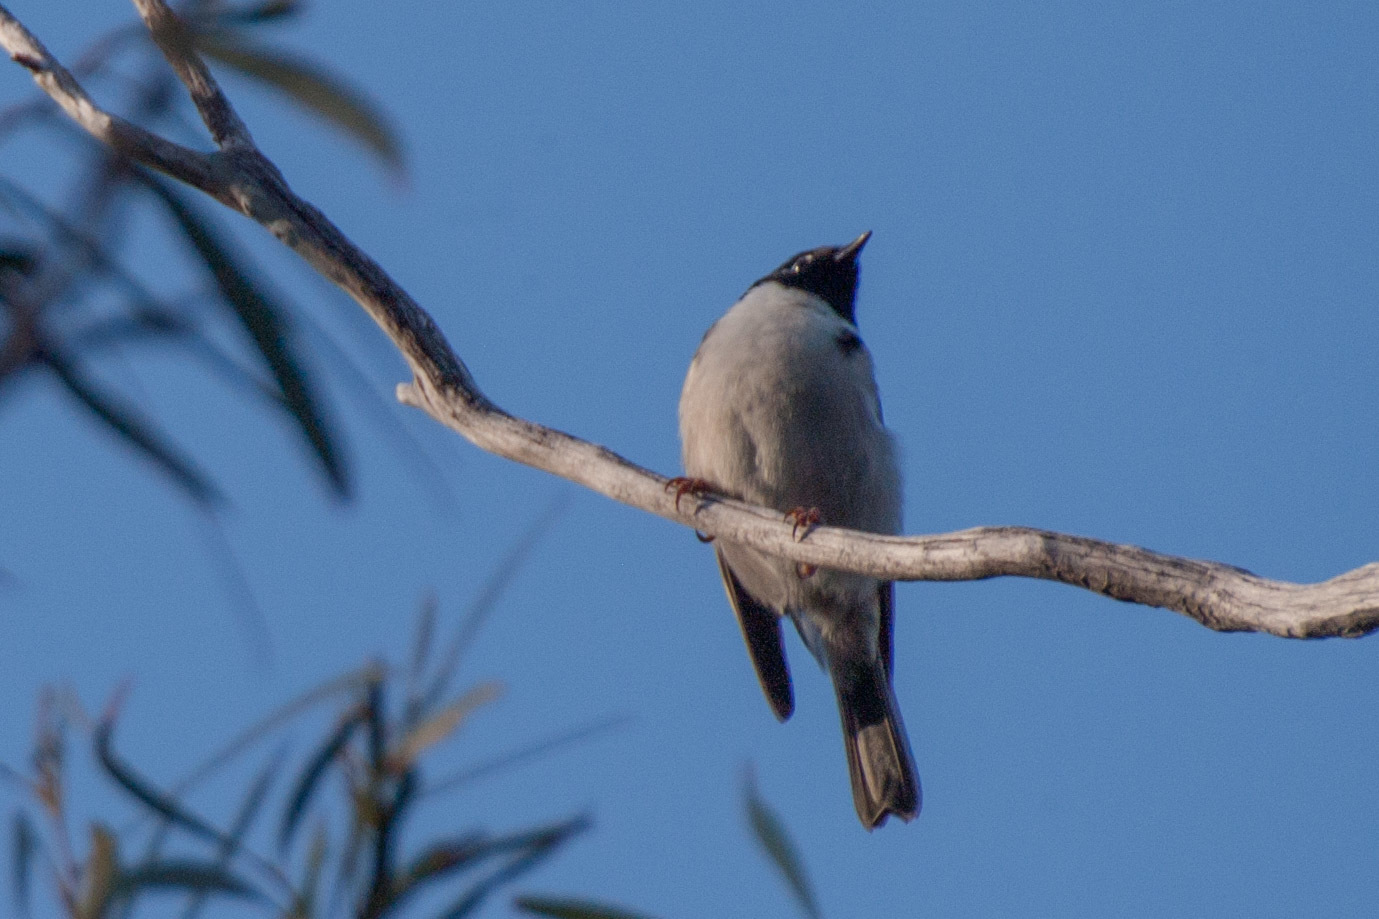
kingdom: Animalia
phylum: Chordata
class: Aves
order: Passeriformes
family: Meliphagidae
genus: Melithreptus
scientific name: Melithreptus affinis
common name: Black-headed honeyeater
